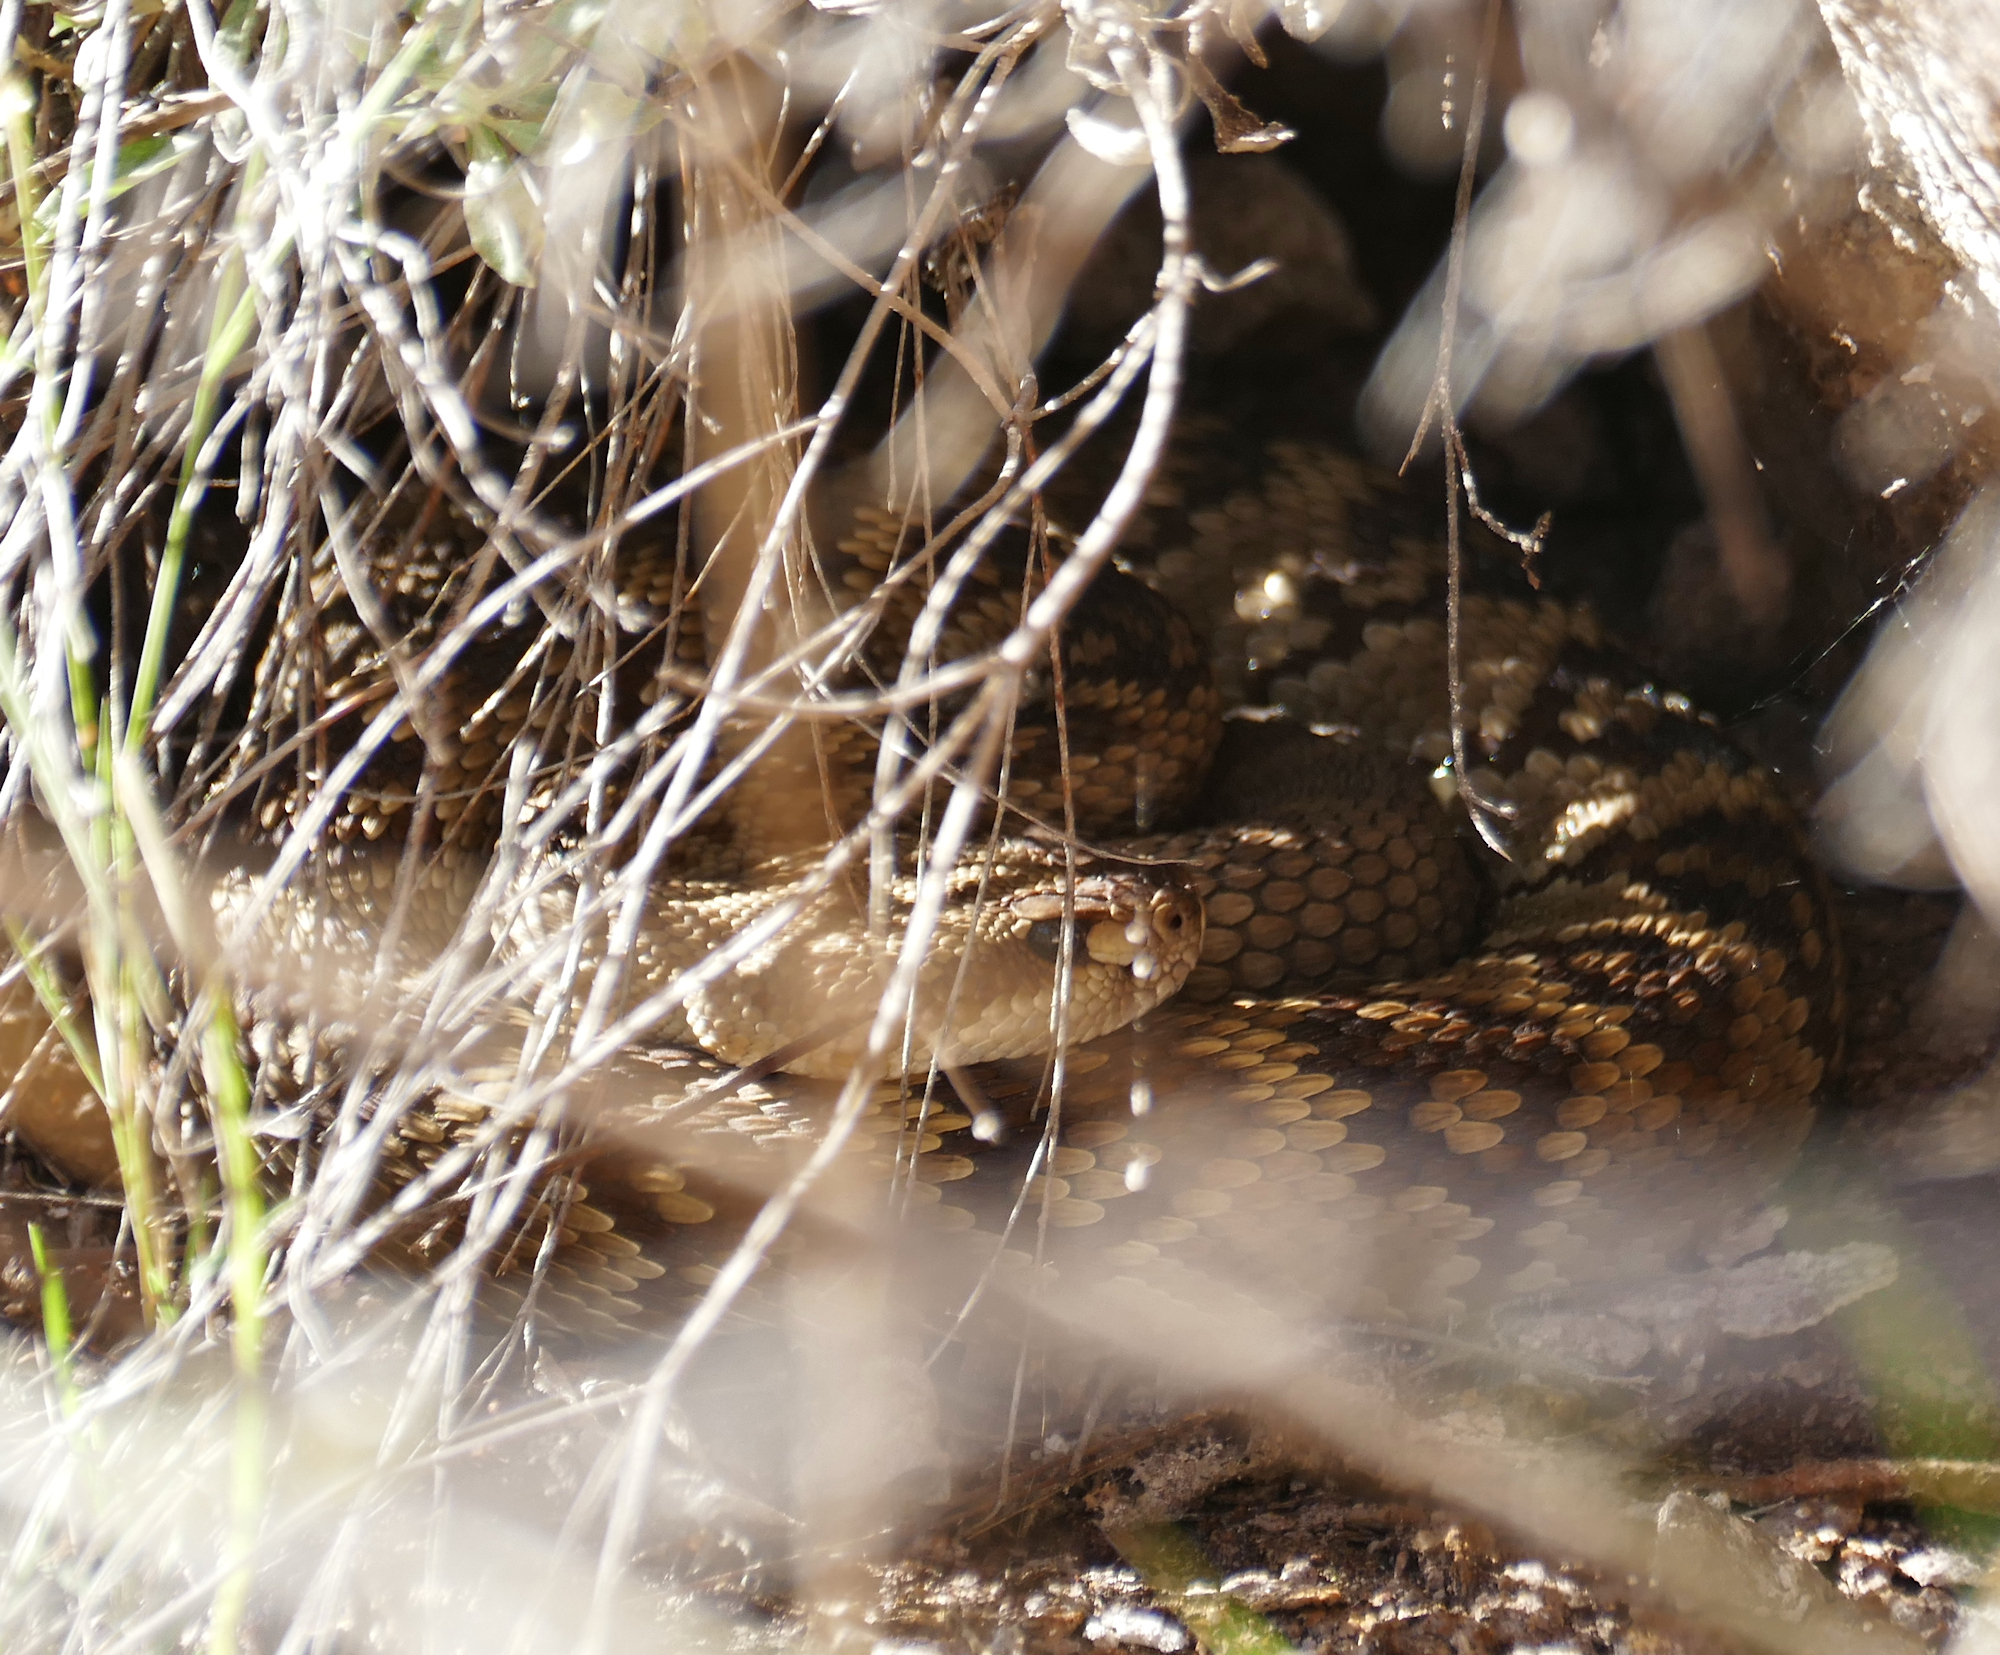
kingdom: Animalia
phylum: Chordata
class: Squamata
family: Viperidae
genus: Crotalus
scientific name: Crotalus molossus
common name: Black tailed rattlesnake
